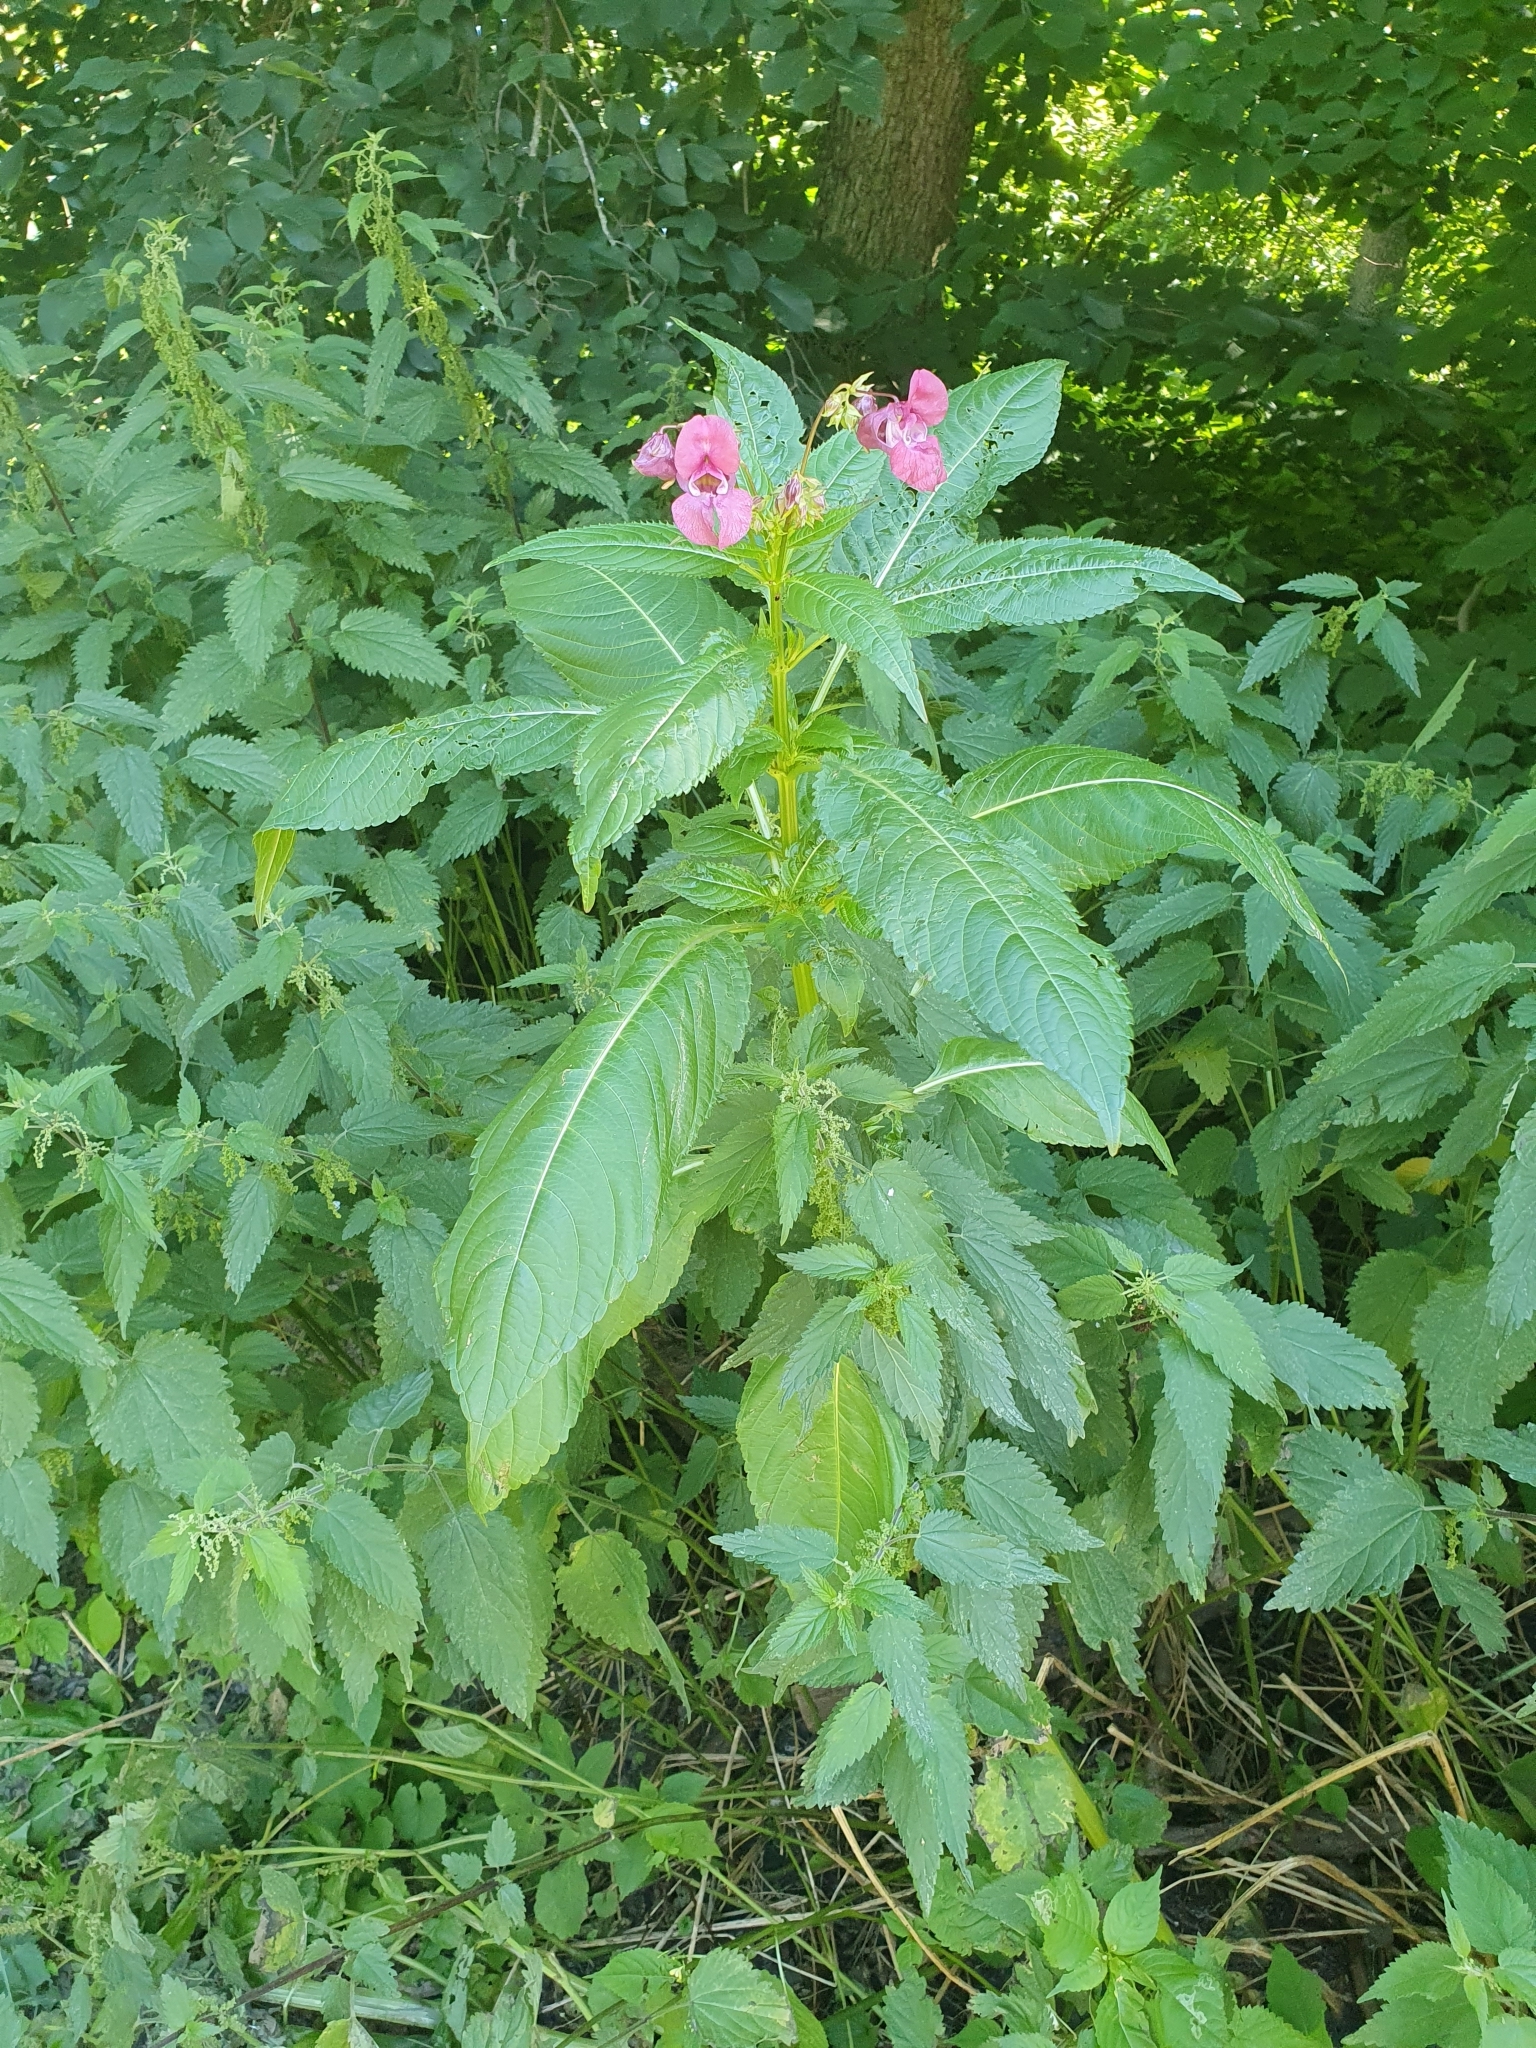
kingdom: Plantae
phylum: Tracheophyta
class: Magnoliopsida
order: Rosales
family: Urticaceae
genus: Urtica
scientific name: Urtica dioica
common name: Common nettle
